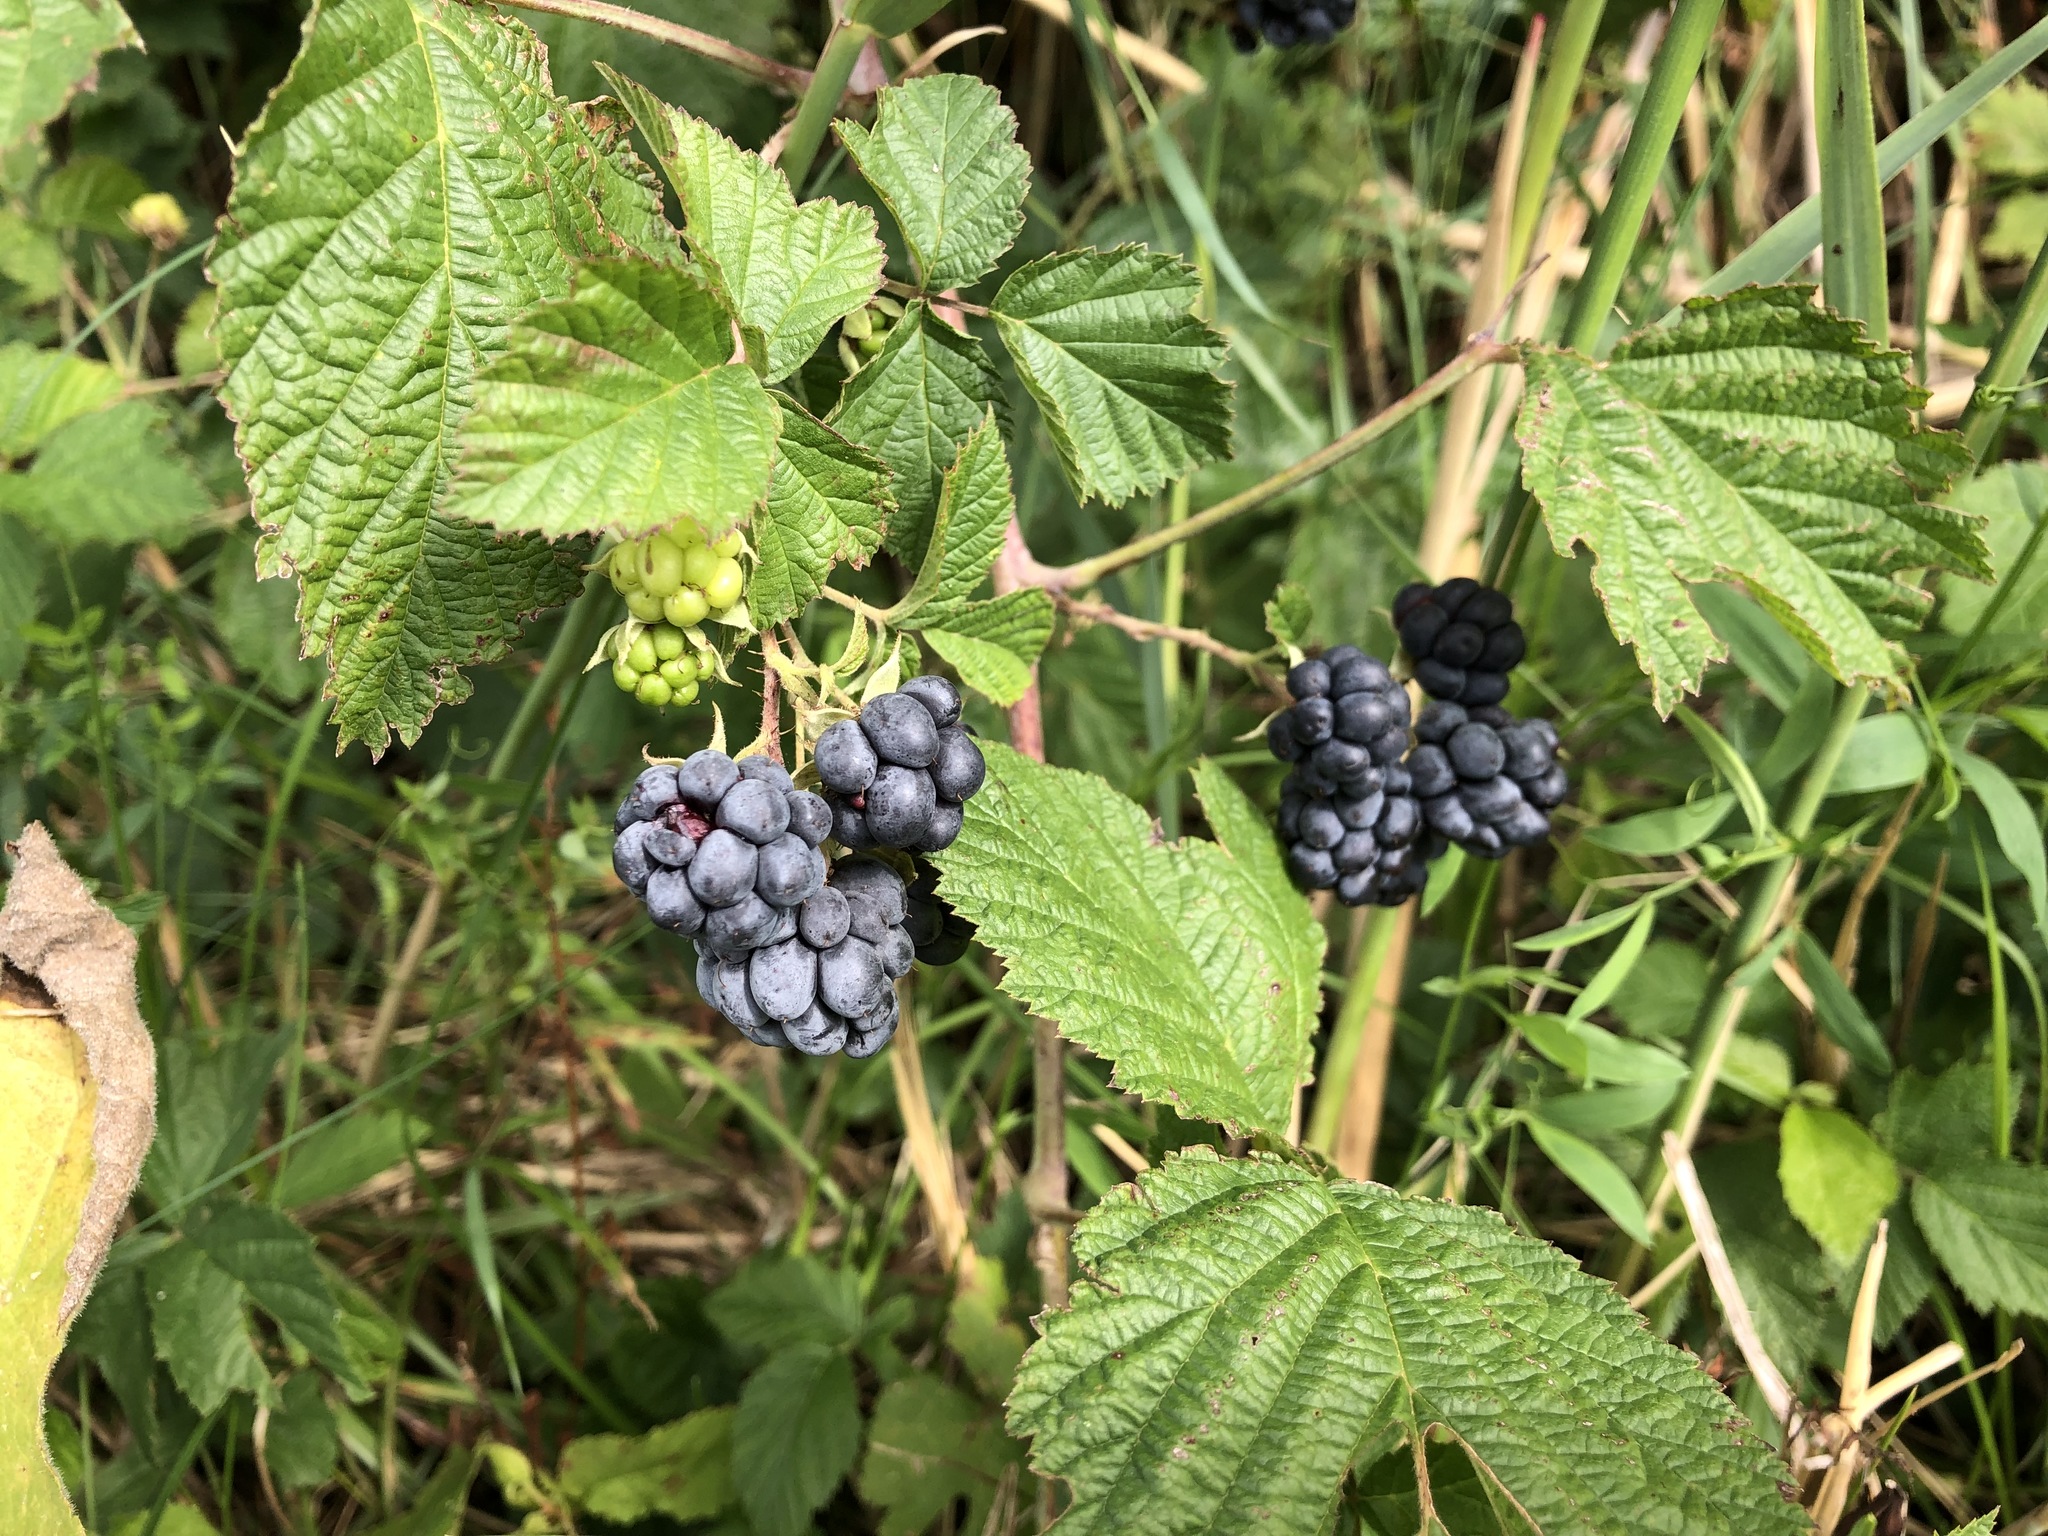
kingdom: Plantae
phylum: Tracheophyta
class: Magnoliopsida
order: Rosales
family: Rosaceae
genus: Rubus
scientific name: Rubus caesius
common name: Dewberry
